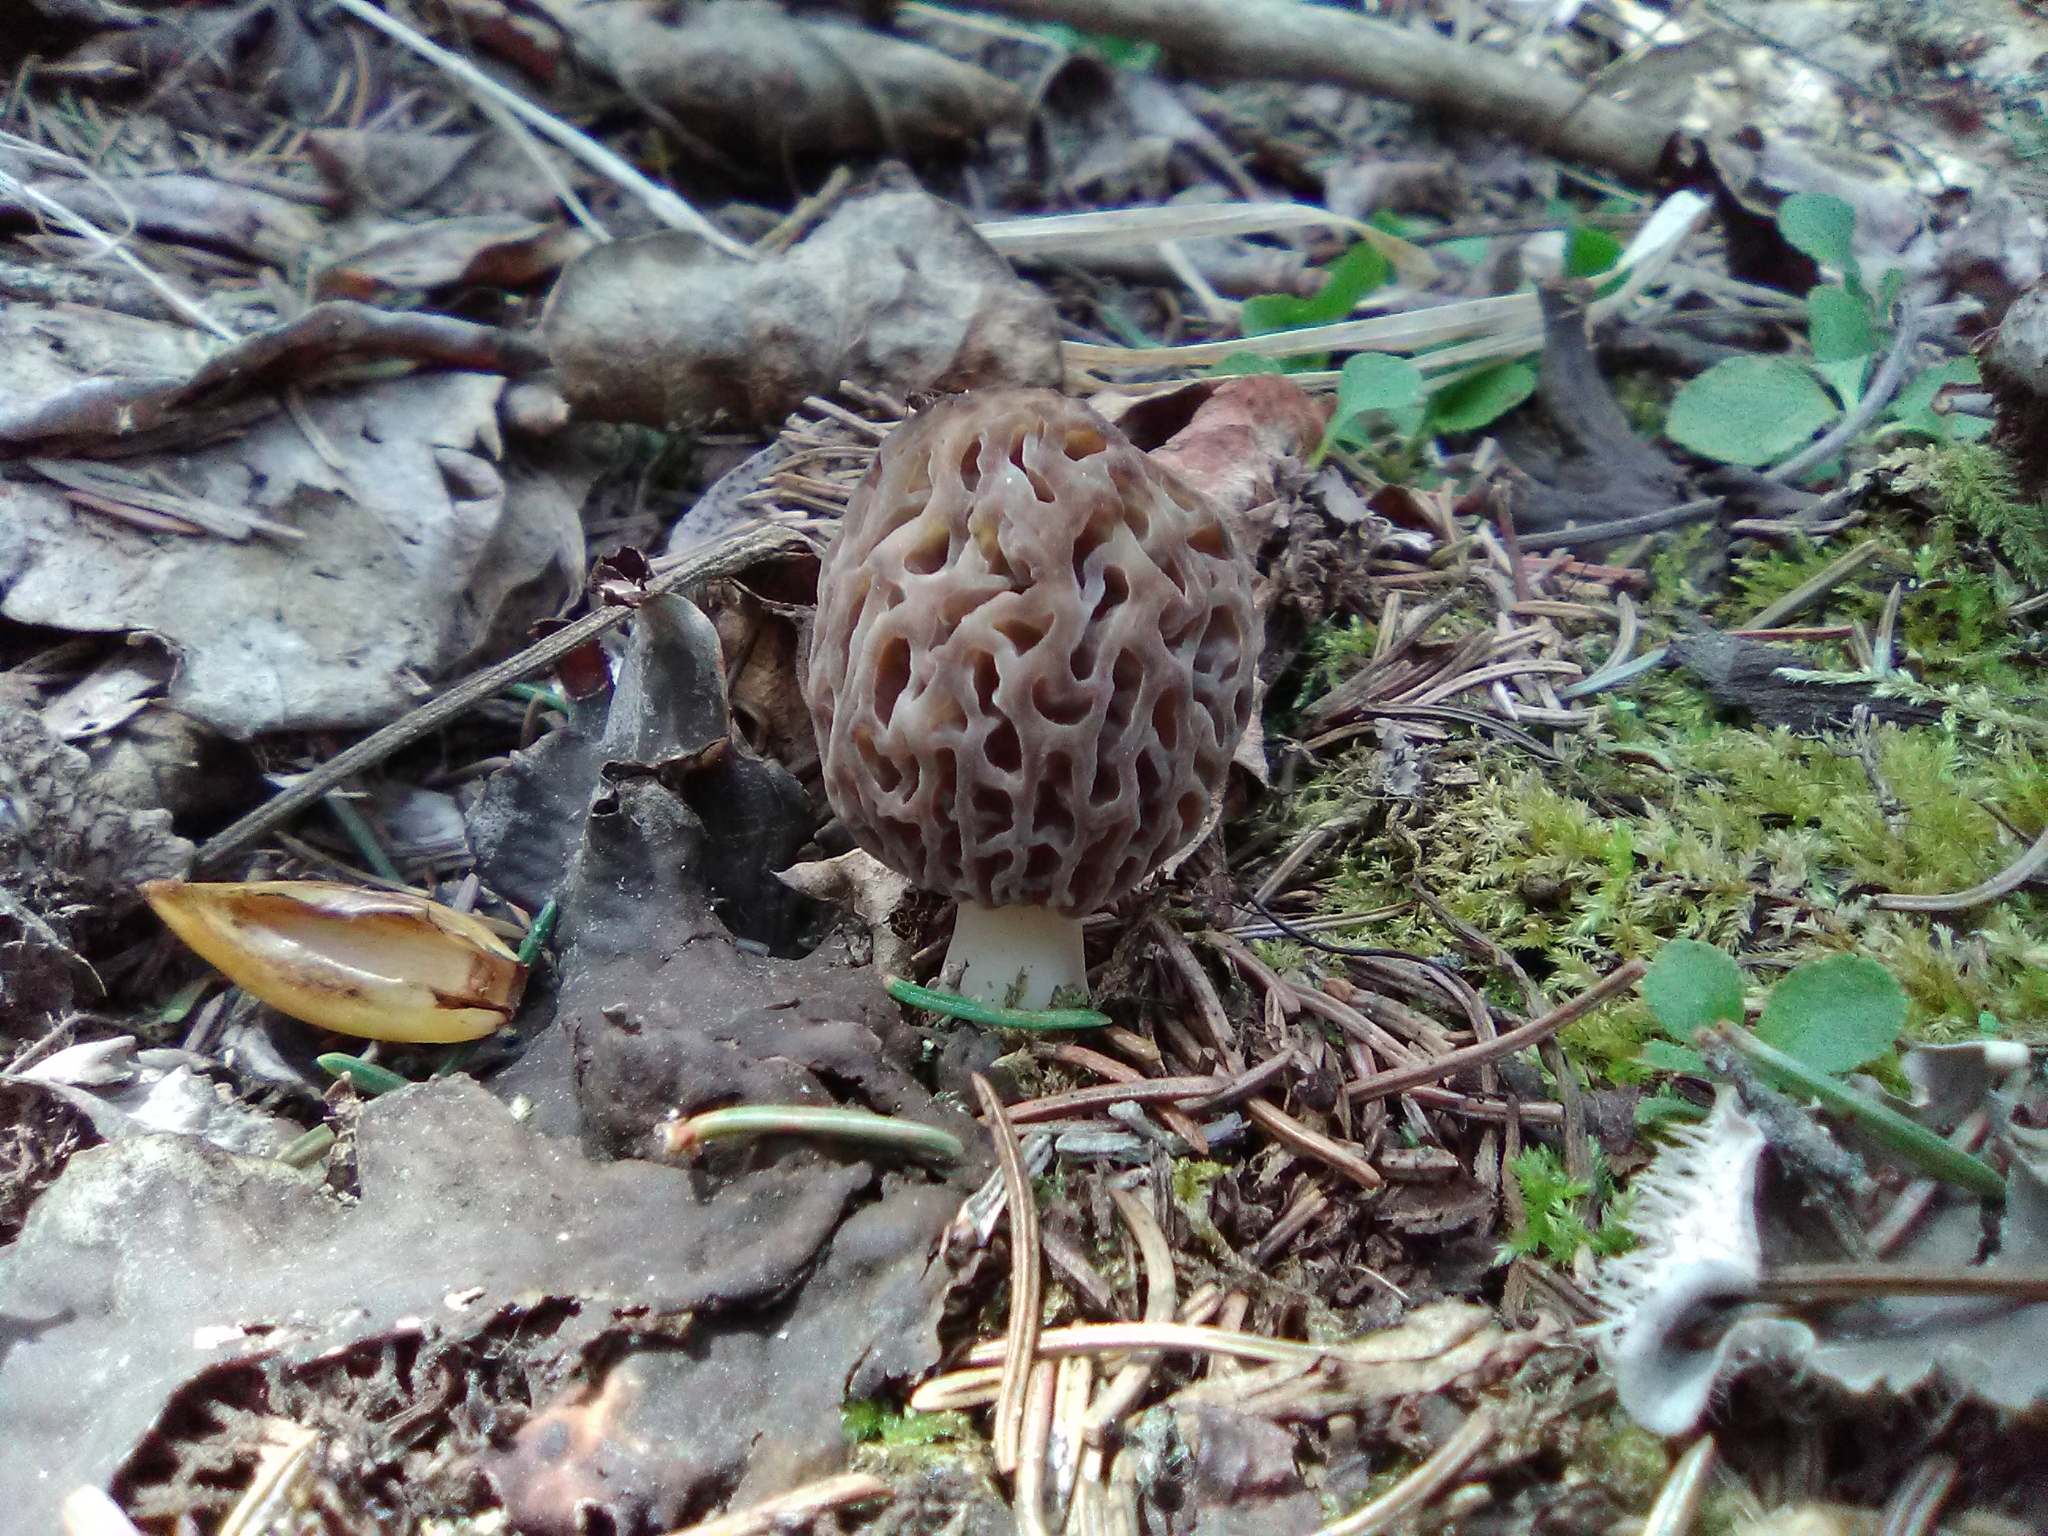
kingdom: Fungi
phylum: Ascomycota
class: Pezizomycetes
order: Pezizales
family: Morchellaceae
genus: Morchella
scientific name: Morchella pulchella
